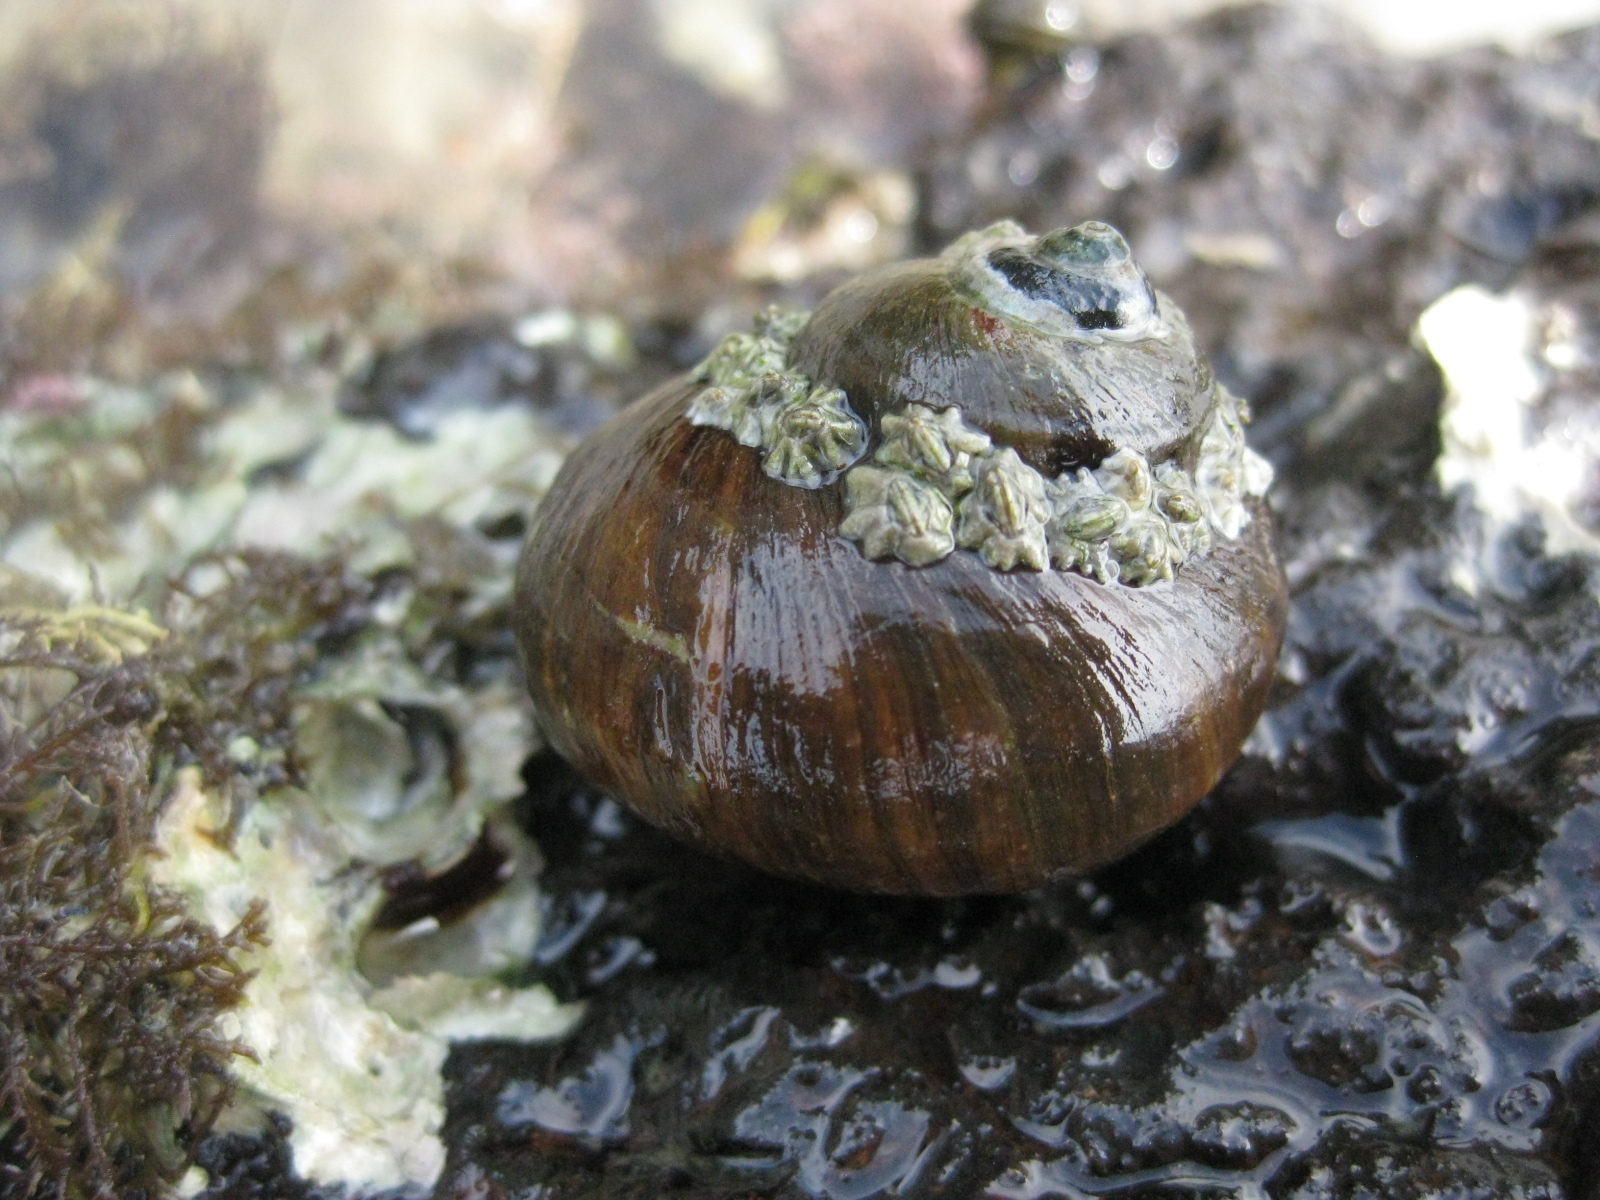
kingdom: Animalia
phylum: Mollusca
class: Gastropoda
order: Trochida
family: Turbinidae
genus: Lunella
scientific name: Lunella smaragda
